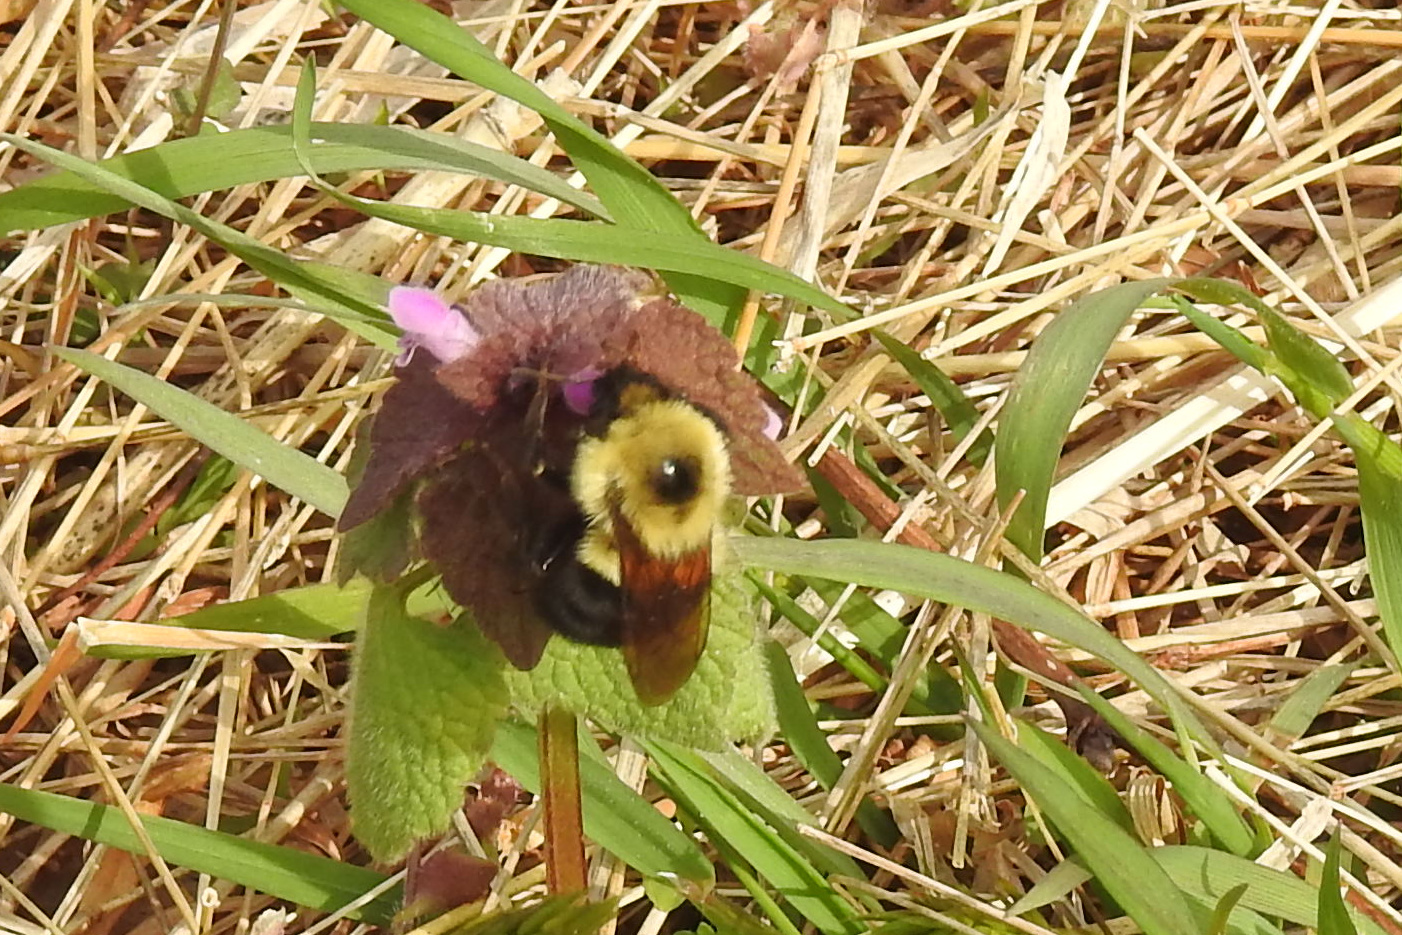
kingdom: Animalia
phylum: Arthropoda
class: Insecta
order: Hymenoptera
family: Apidae
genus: Bombus
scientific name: Bombus bimaculatus
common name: Two-spotted bumble bee
